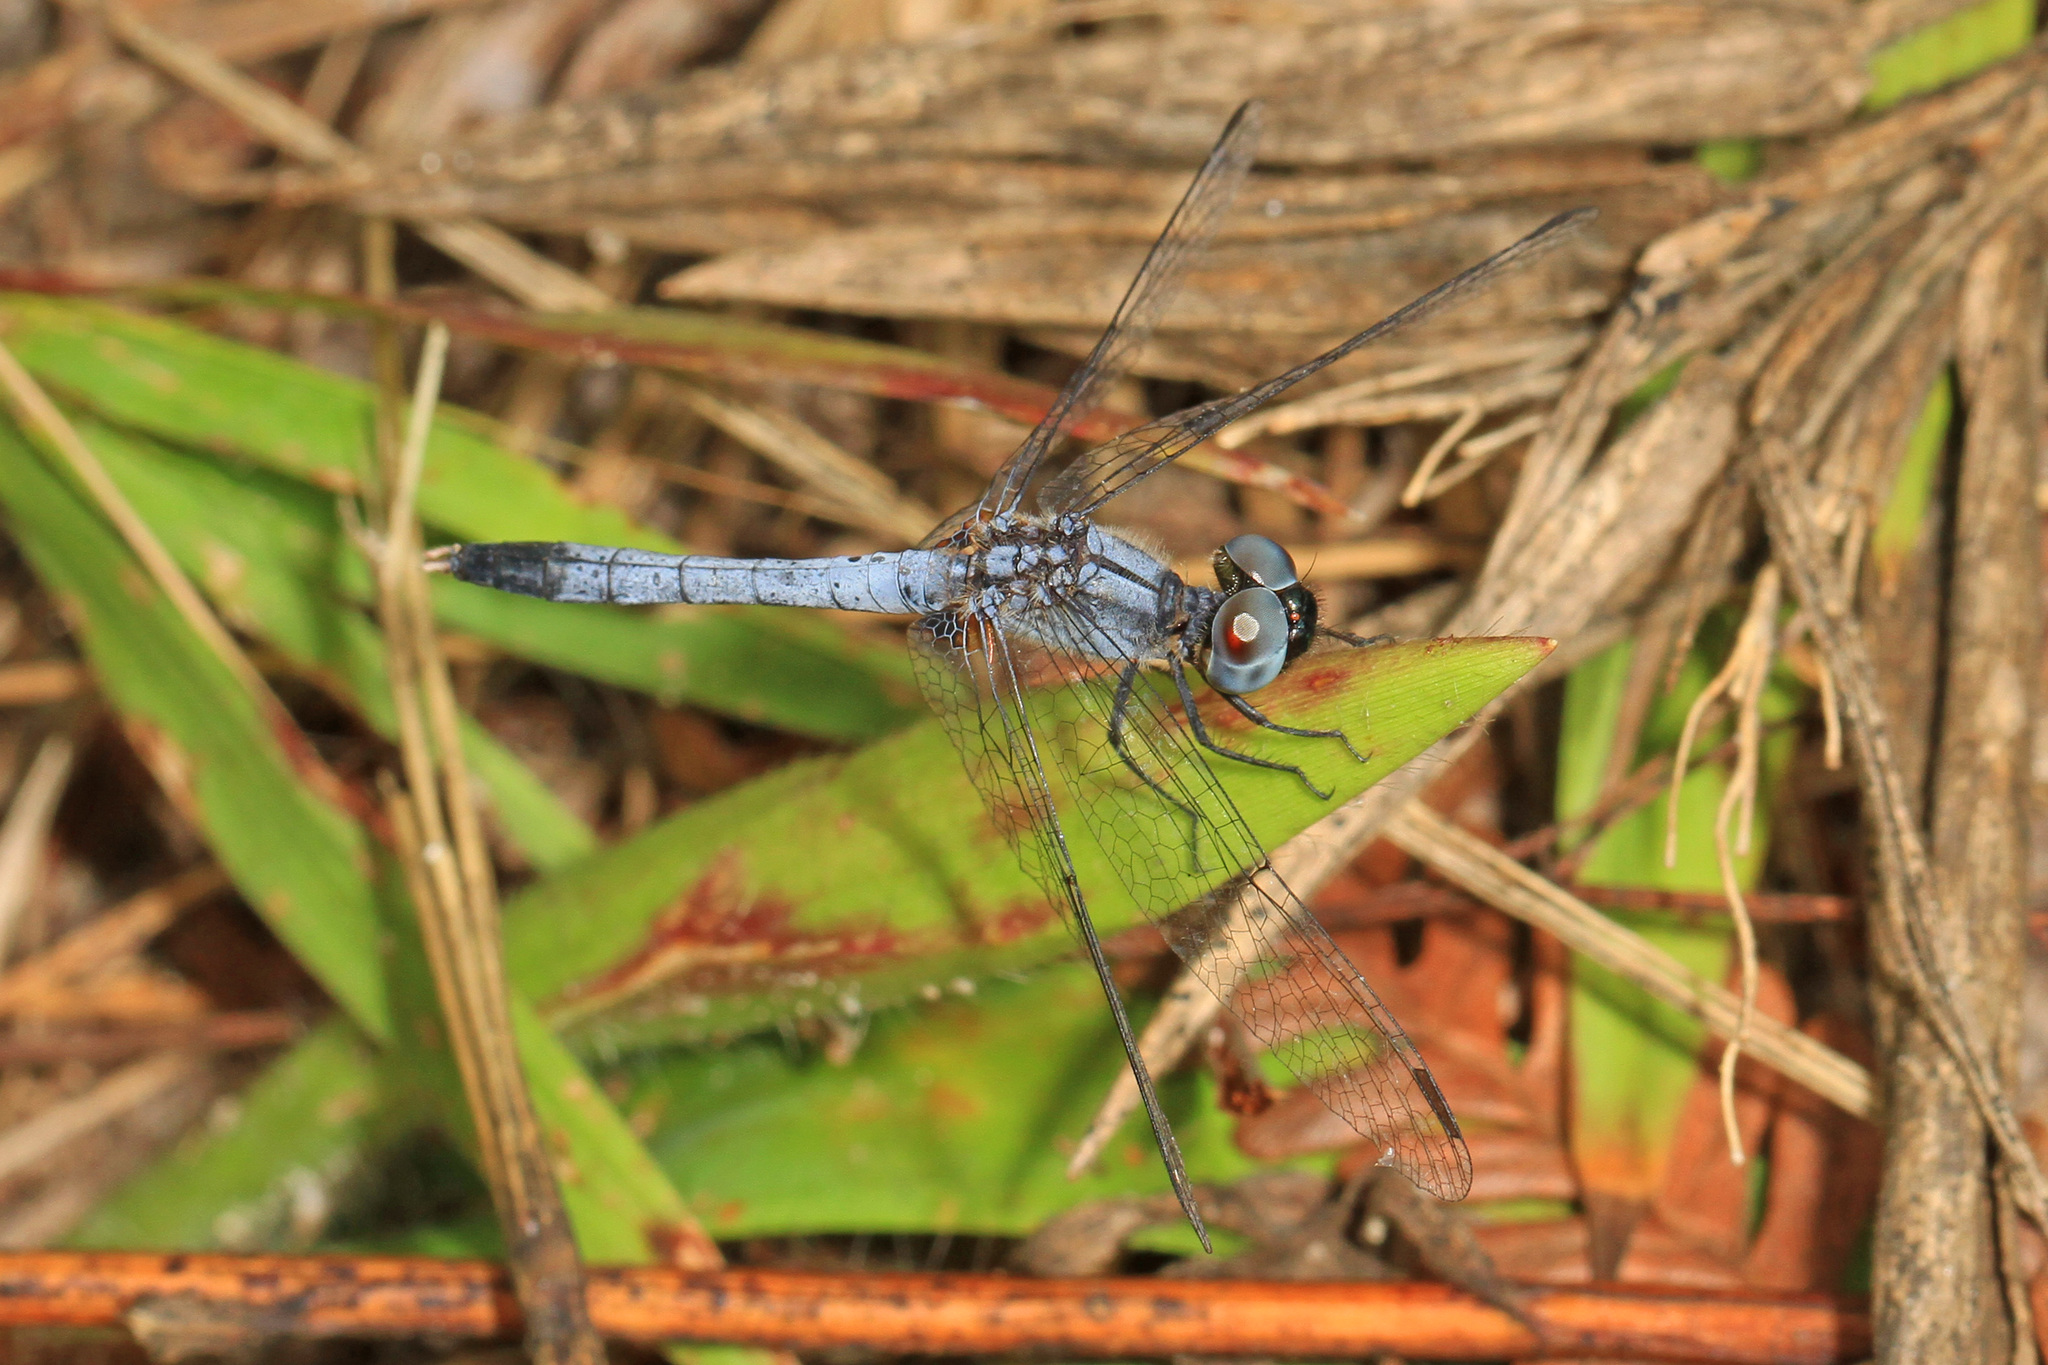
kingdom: Animalia
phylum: Arthropoda
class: Insecta
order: Odonata
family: Libellulidae
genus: Erythrodiplax
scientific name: Erythrodiplax minuscula
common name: Little blue dragonlet
